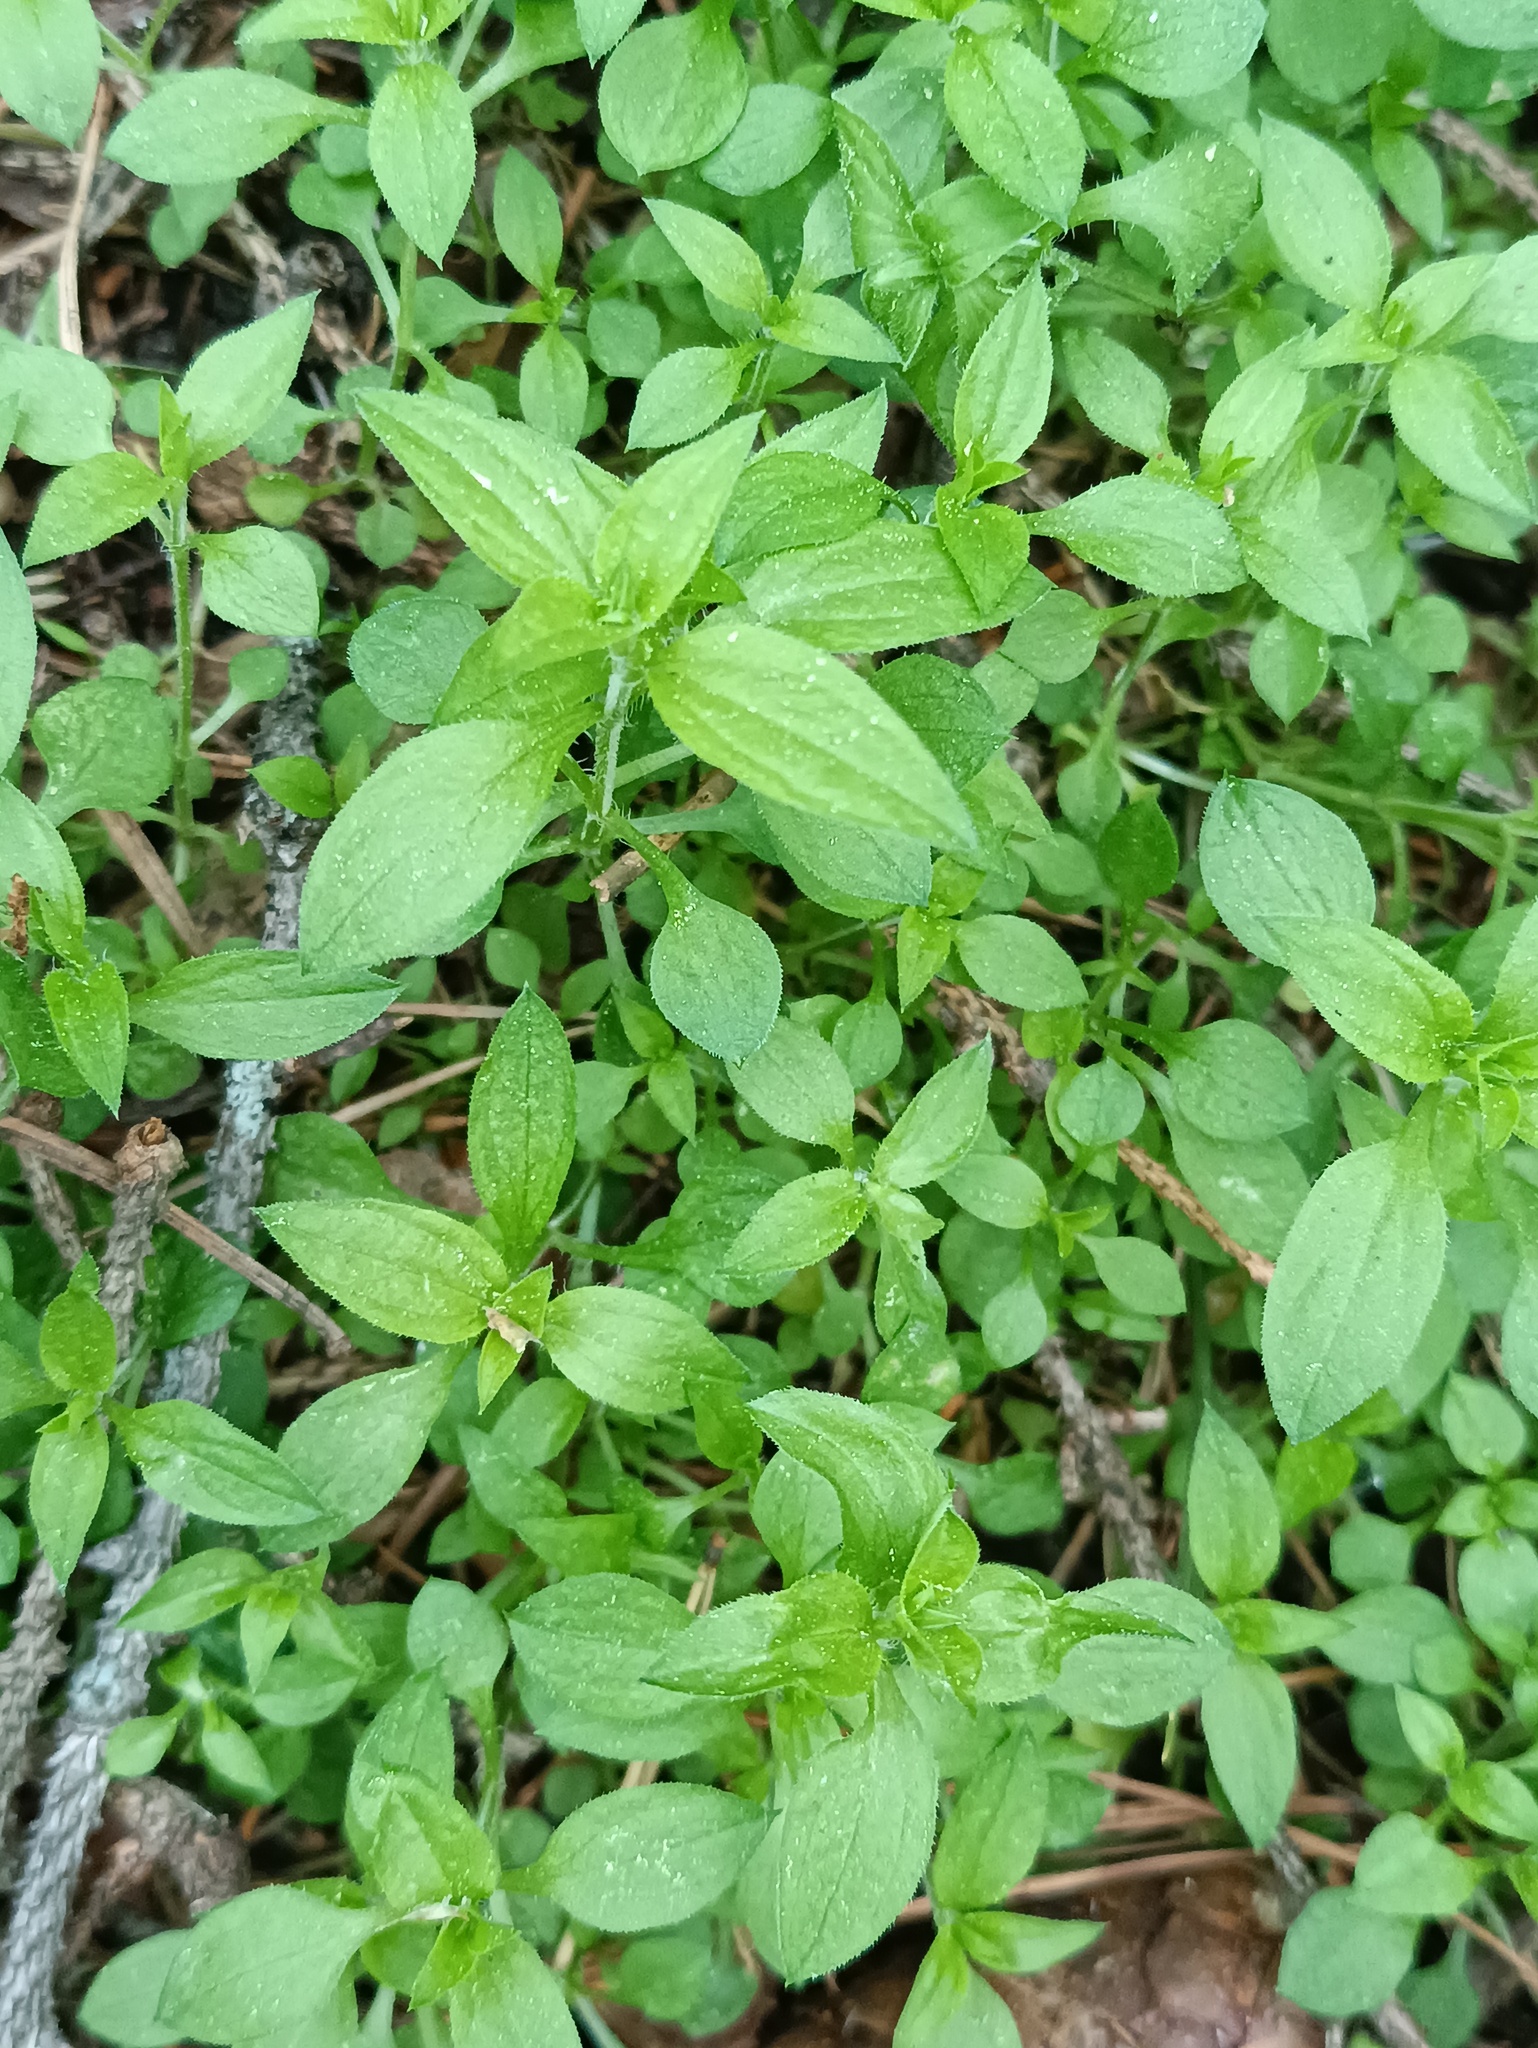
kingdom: Plantae
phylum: Tracheophyta
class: Magnoliopsida
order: Caryophyllales
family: Caryophyllaceae
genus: Moehringia
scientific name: Moehringia trinervia
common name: Three-nerved sandwort
